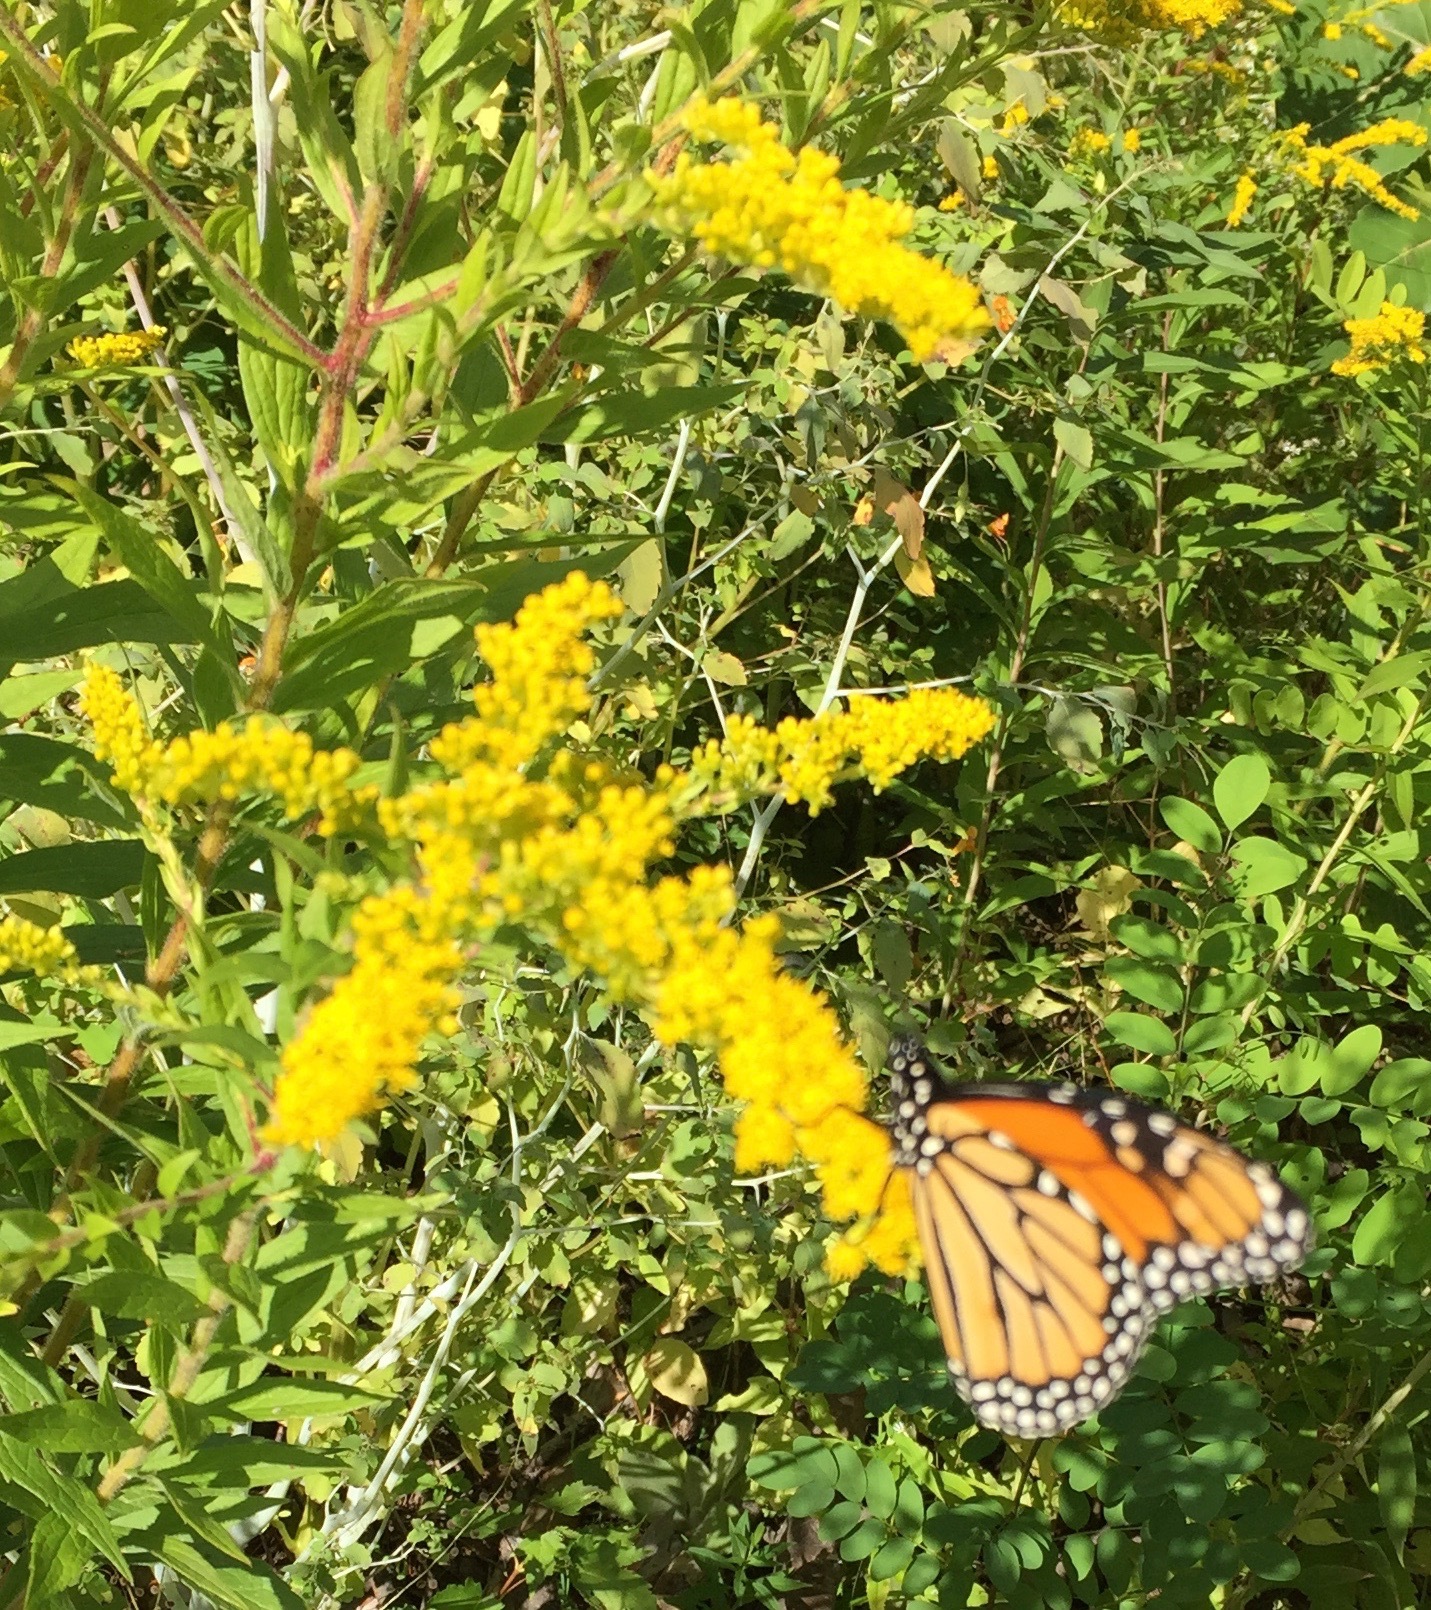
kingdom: Animalia
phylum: Arthropoda
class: Insecta
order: Lepidoptera
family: Nymphalidae
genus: Danaus
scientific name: Danaus plexippus
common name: Monarch
